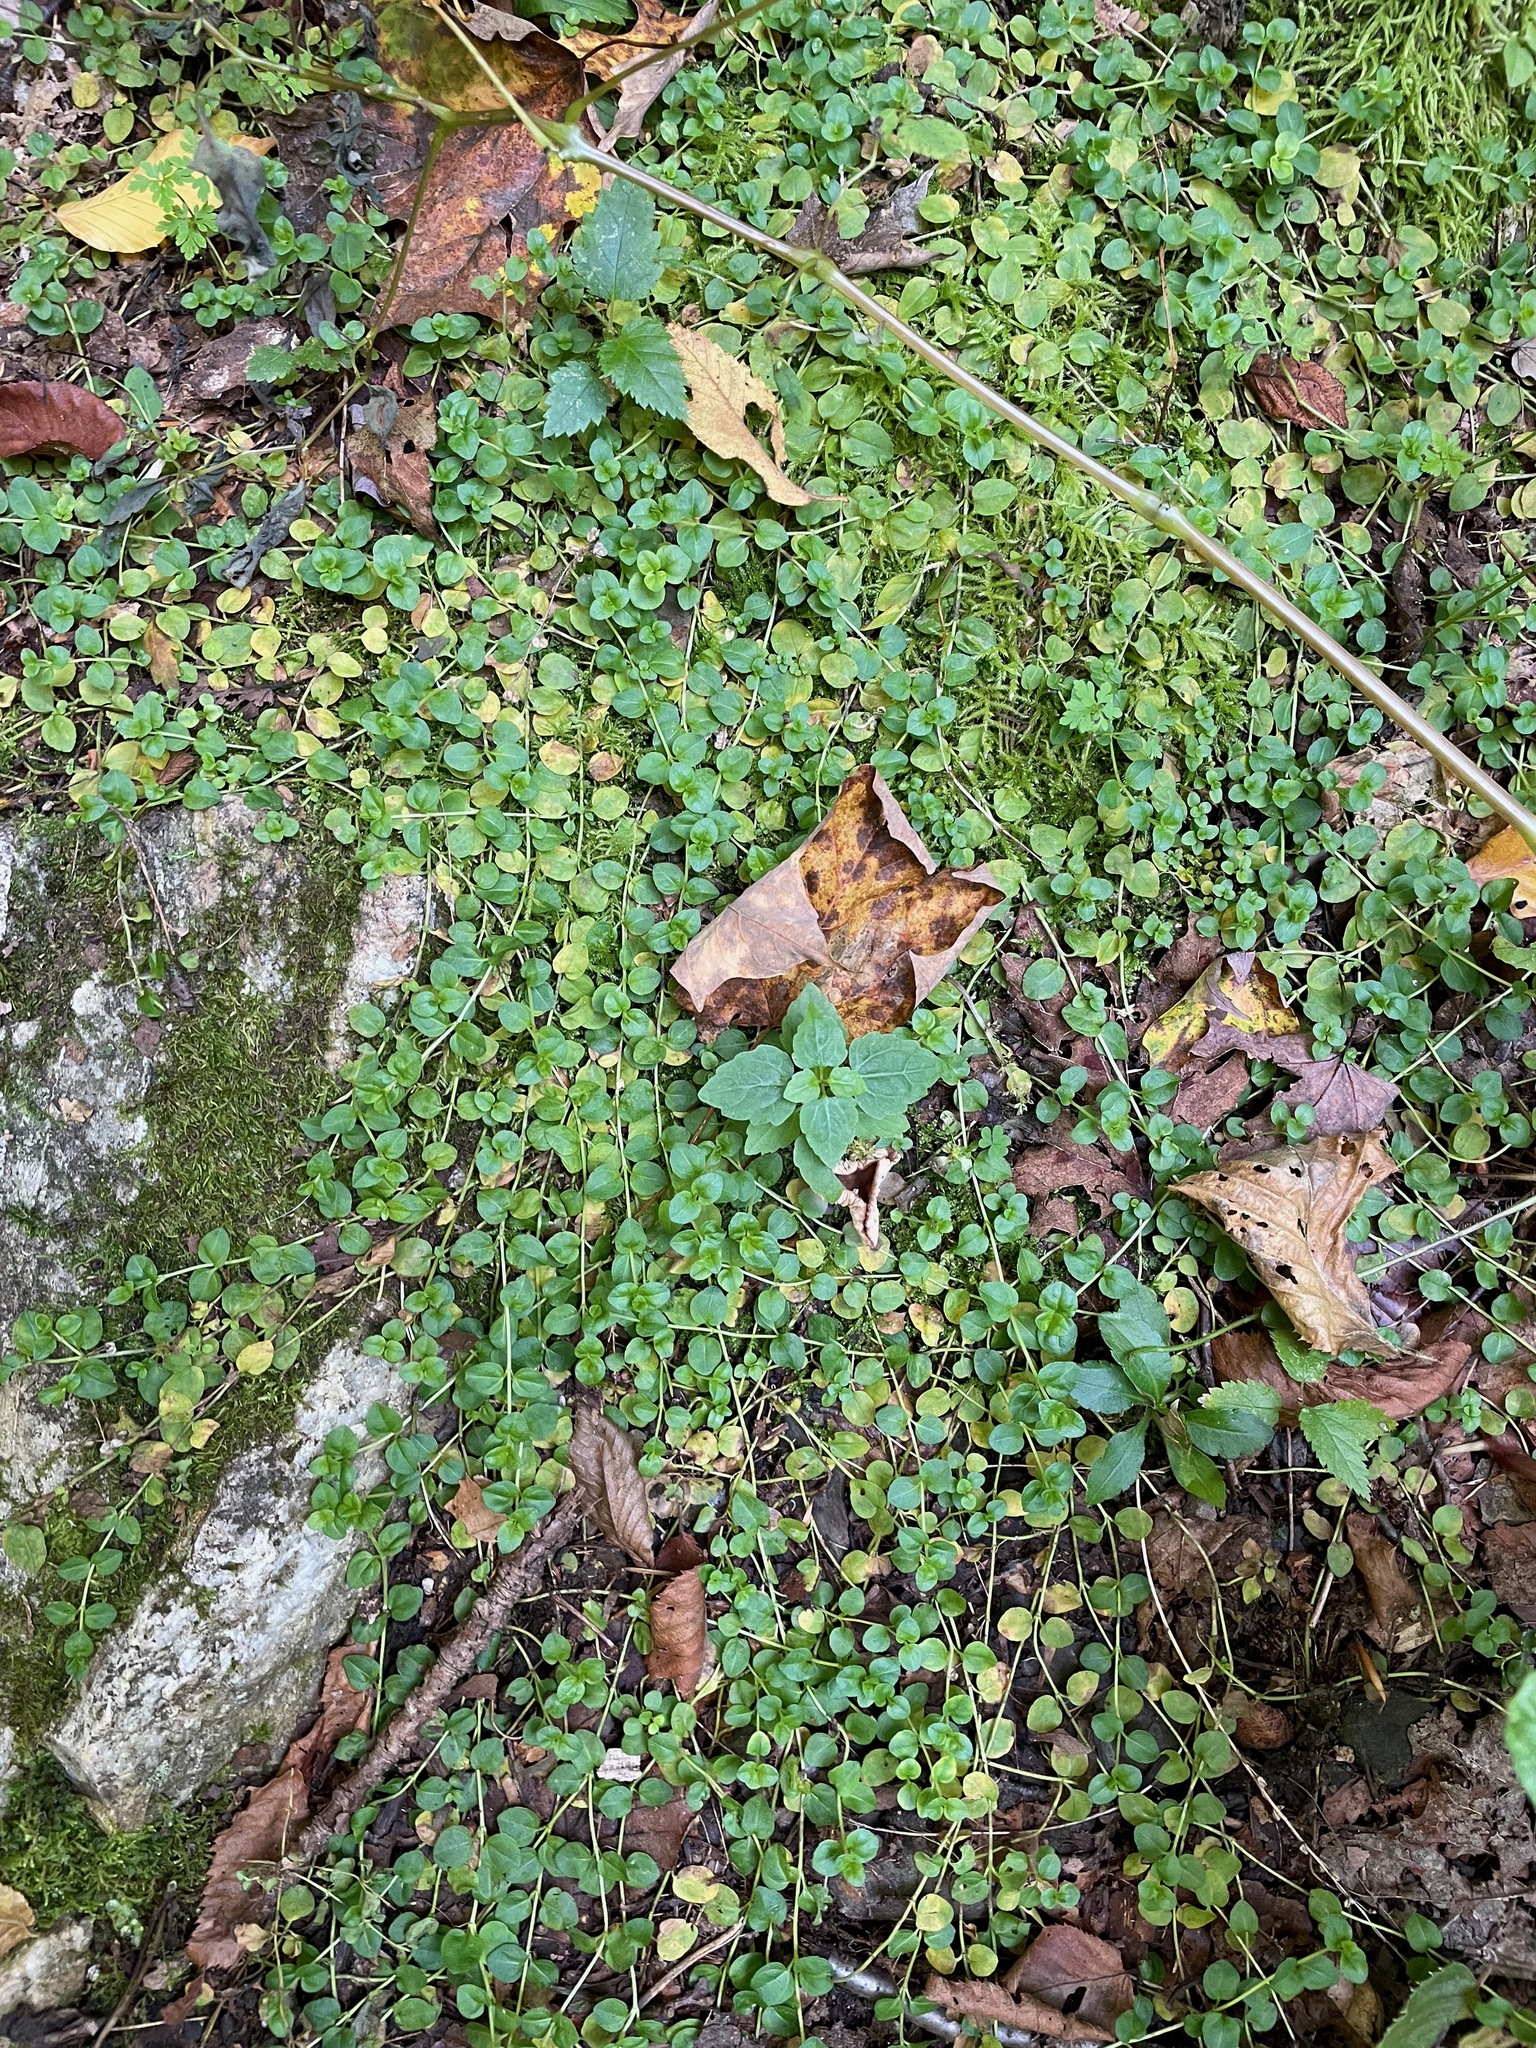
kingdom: Plantae
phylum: Tracheophyta
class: Magnoliopsida
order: Lamiales
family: Plantaginaceae
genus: Veronica
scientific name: Veronica serpyllifolia
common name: Thyme-leaved speedwell
